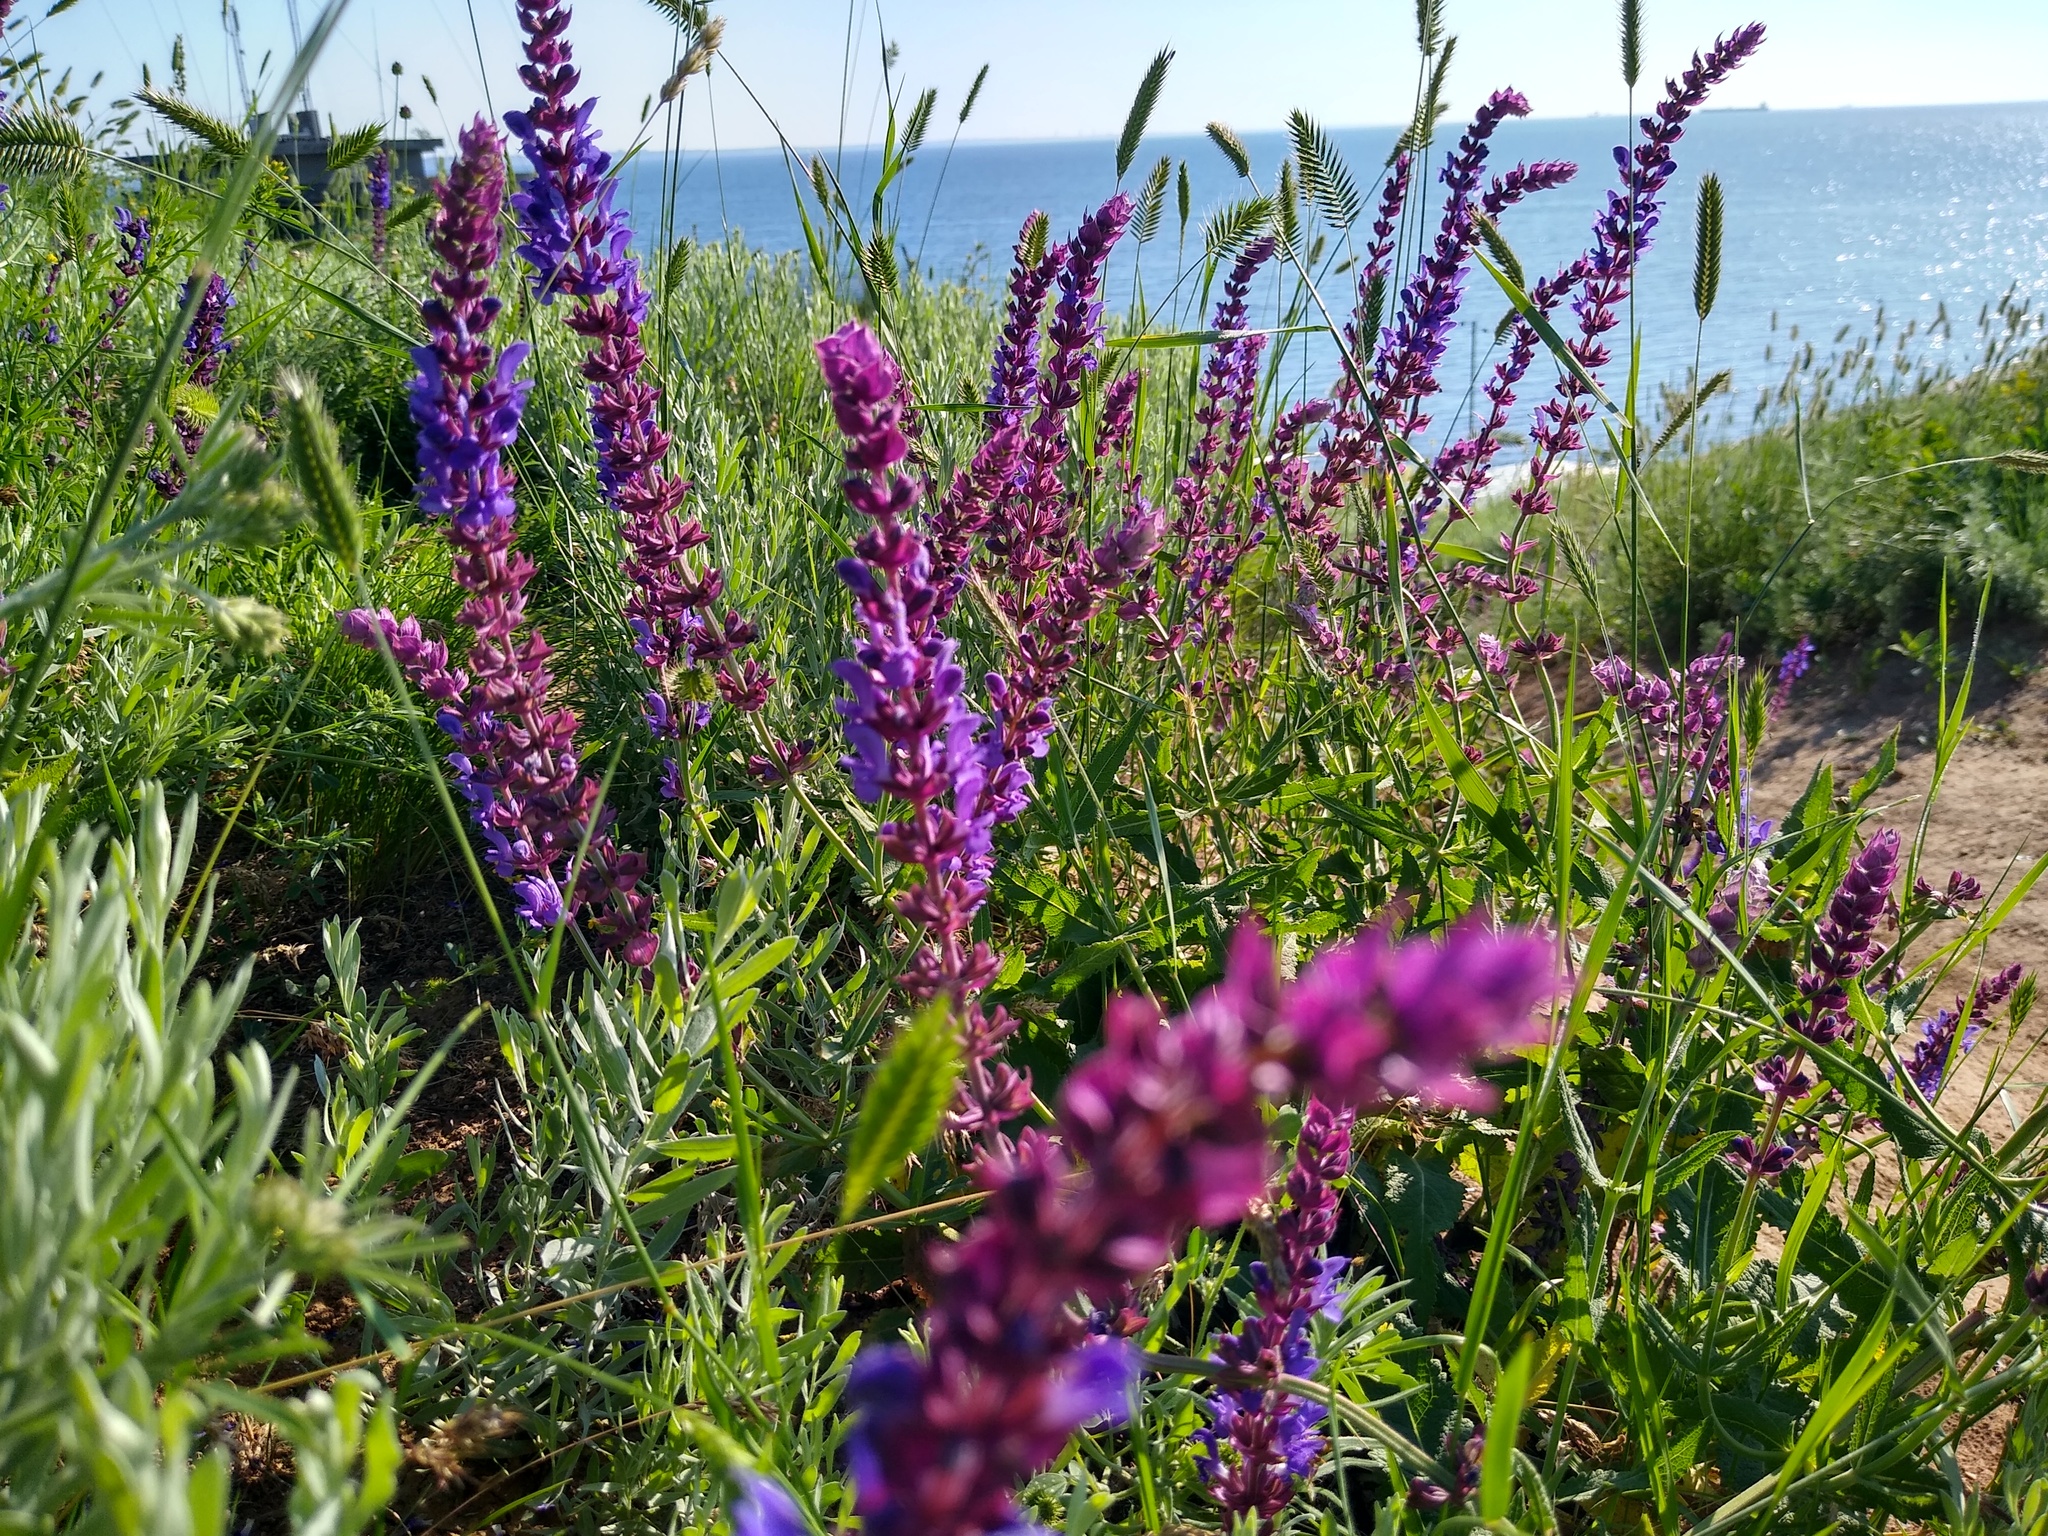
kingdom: Plantae
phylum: Tracheophyta
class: Magnoliopsida
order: Lamiales
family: Lamiaceae
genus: Salvia
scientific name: Salvia nemorosa
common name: Balkan clary
